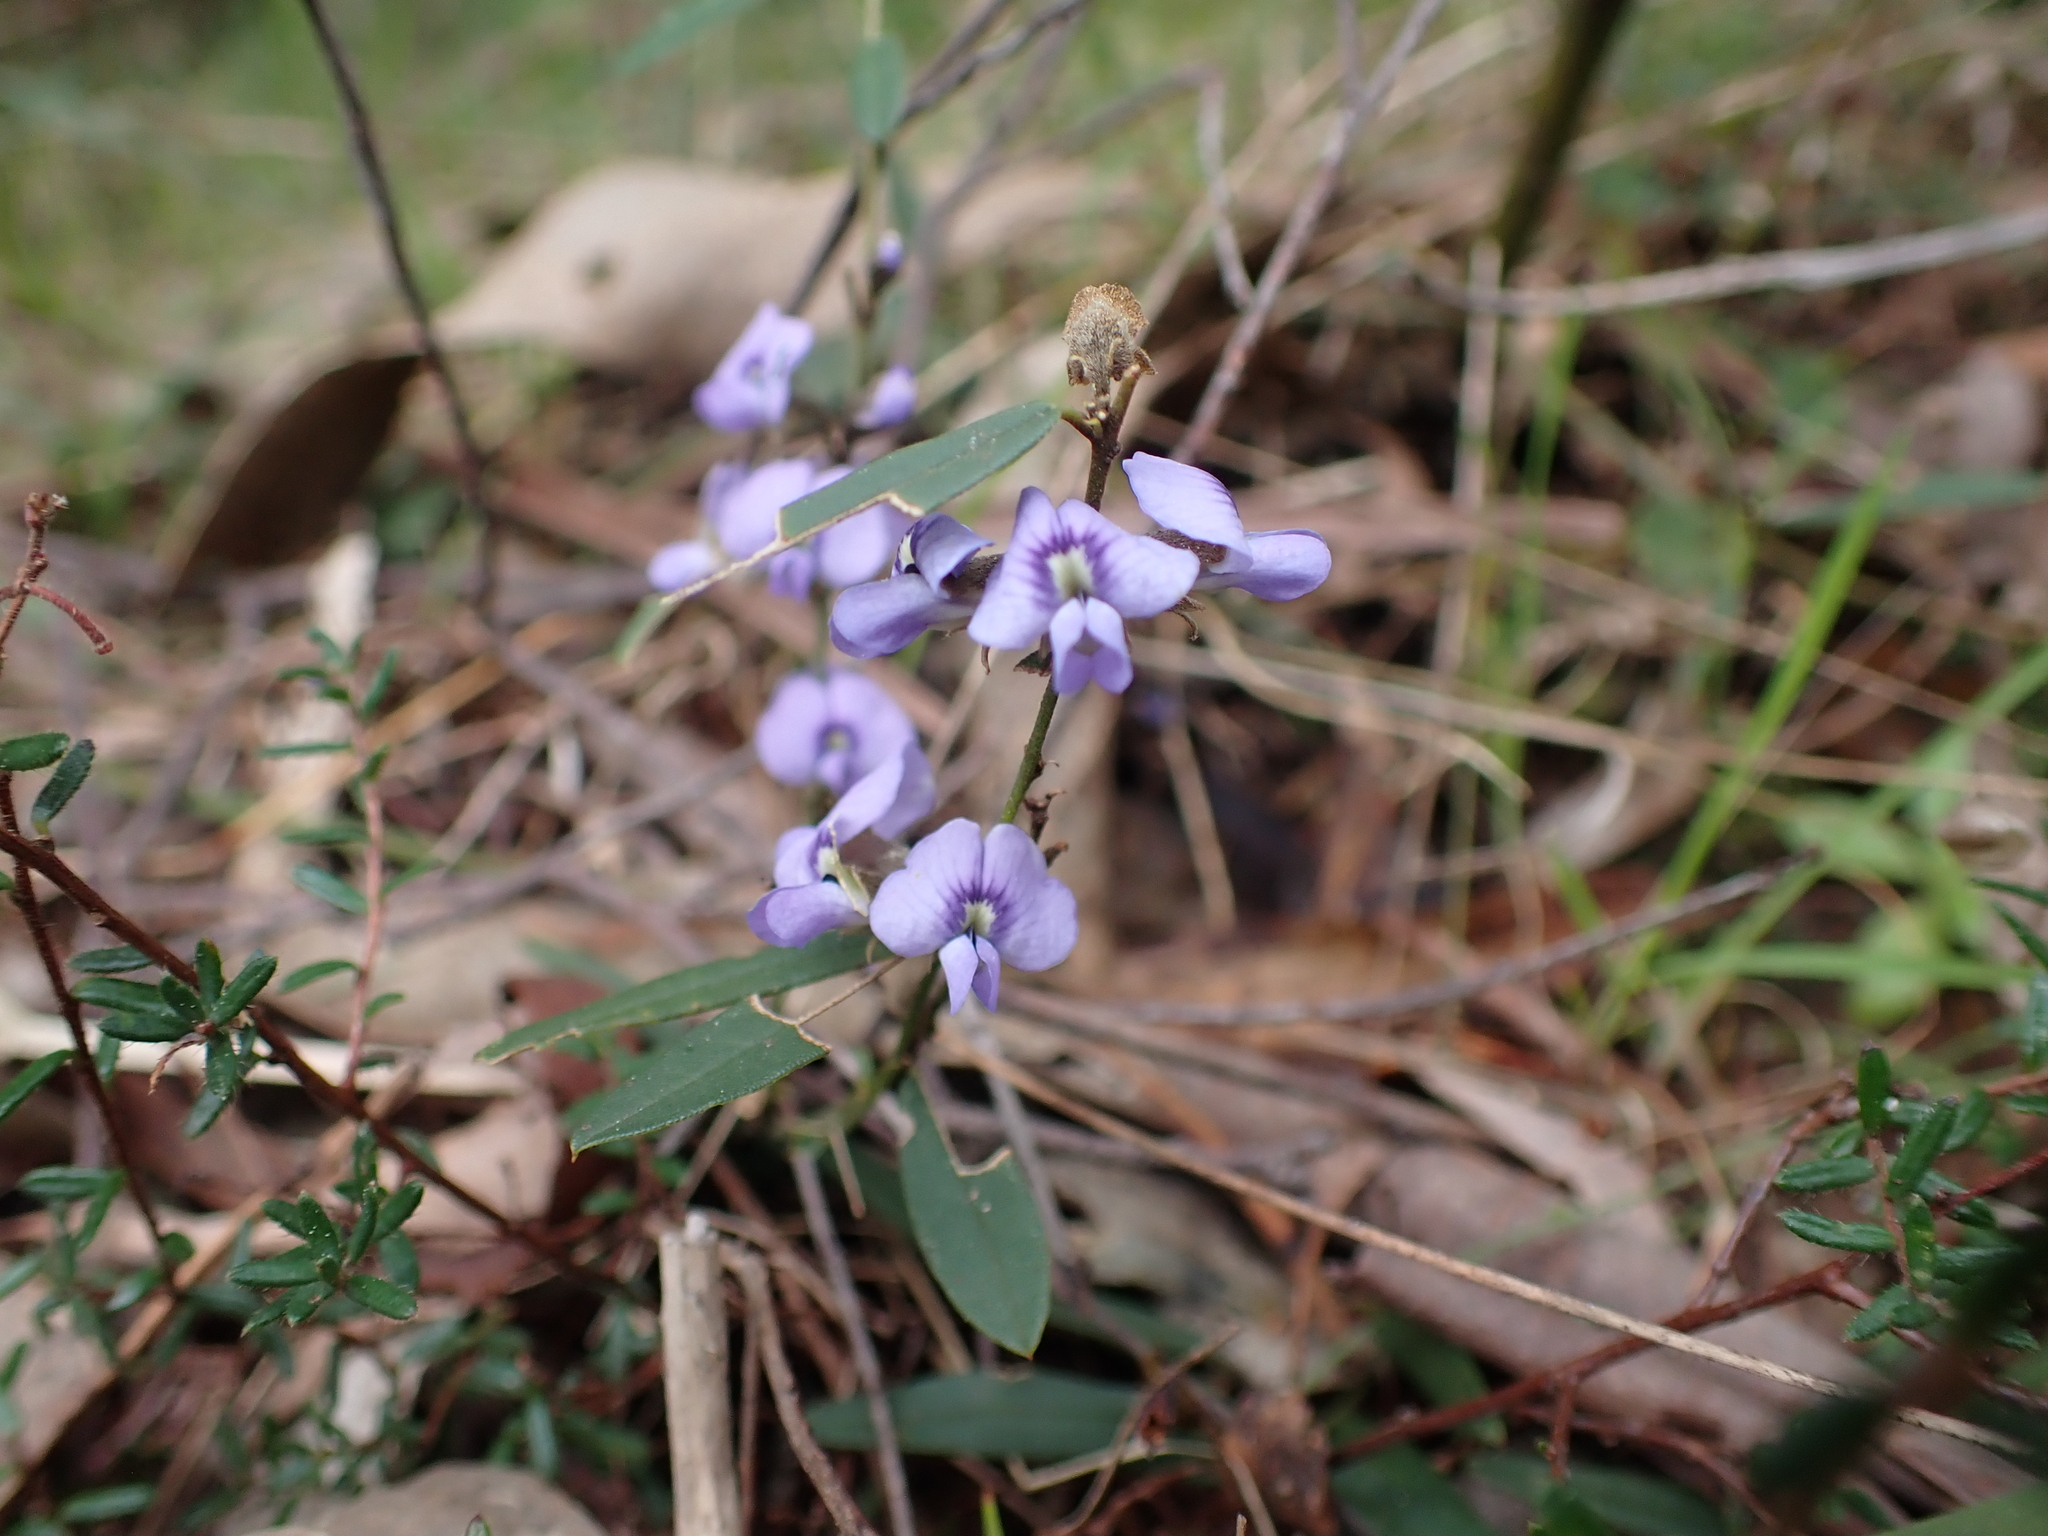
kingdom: Plantae
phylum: Tracheophyta
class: Magnoliopsida
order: Fabales
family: Fabaceae
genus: Hovea
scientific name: Hovea heterophylla
